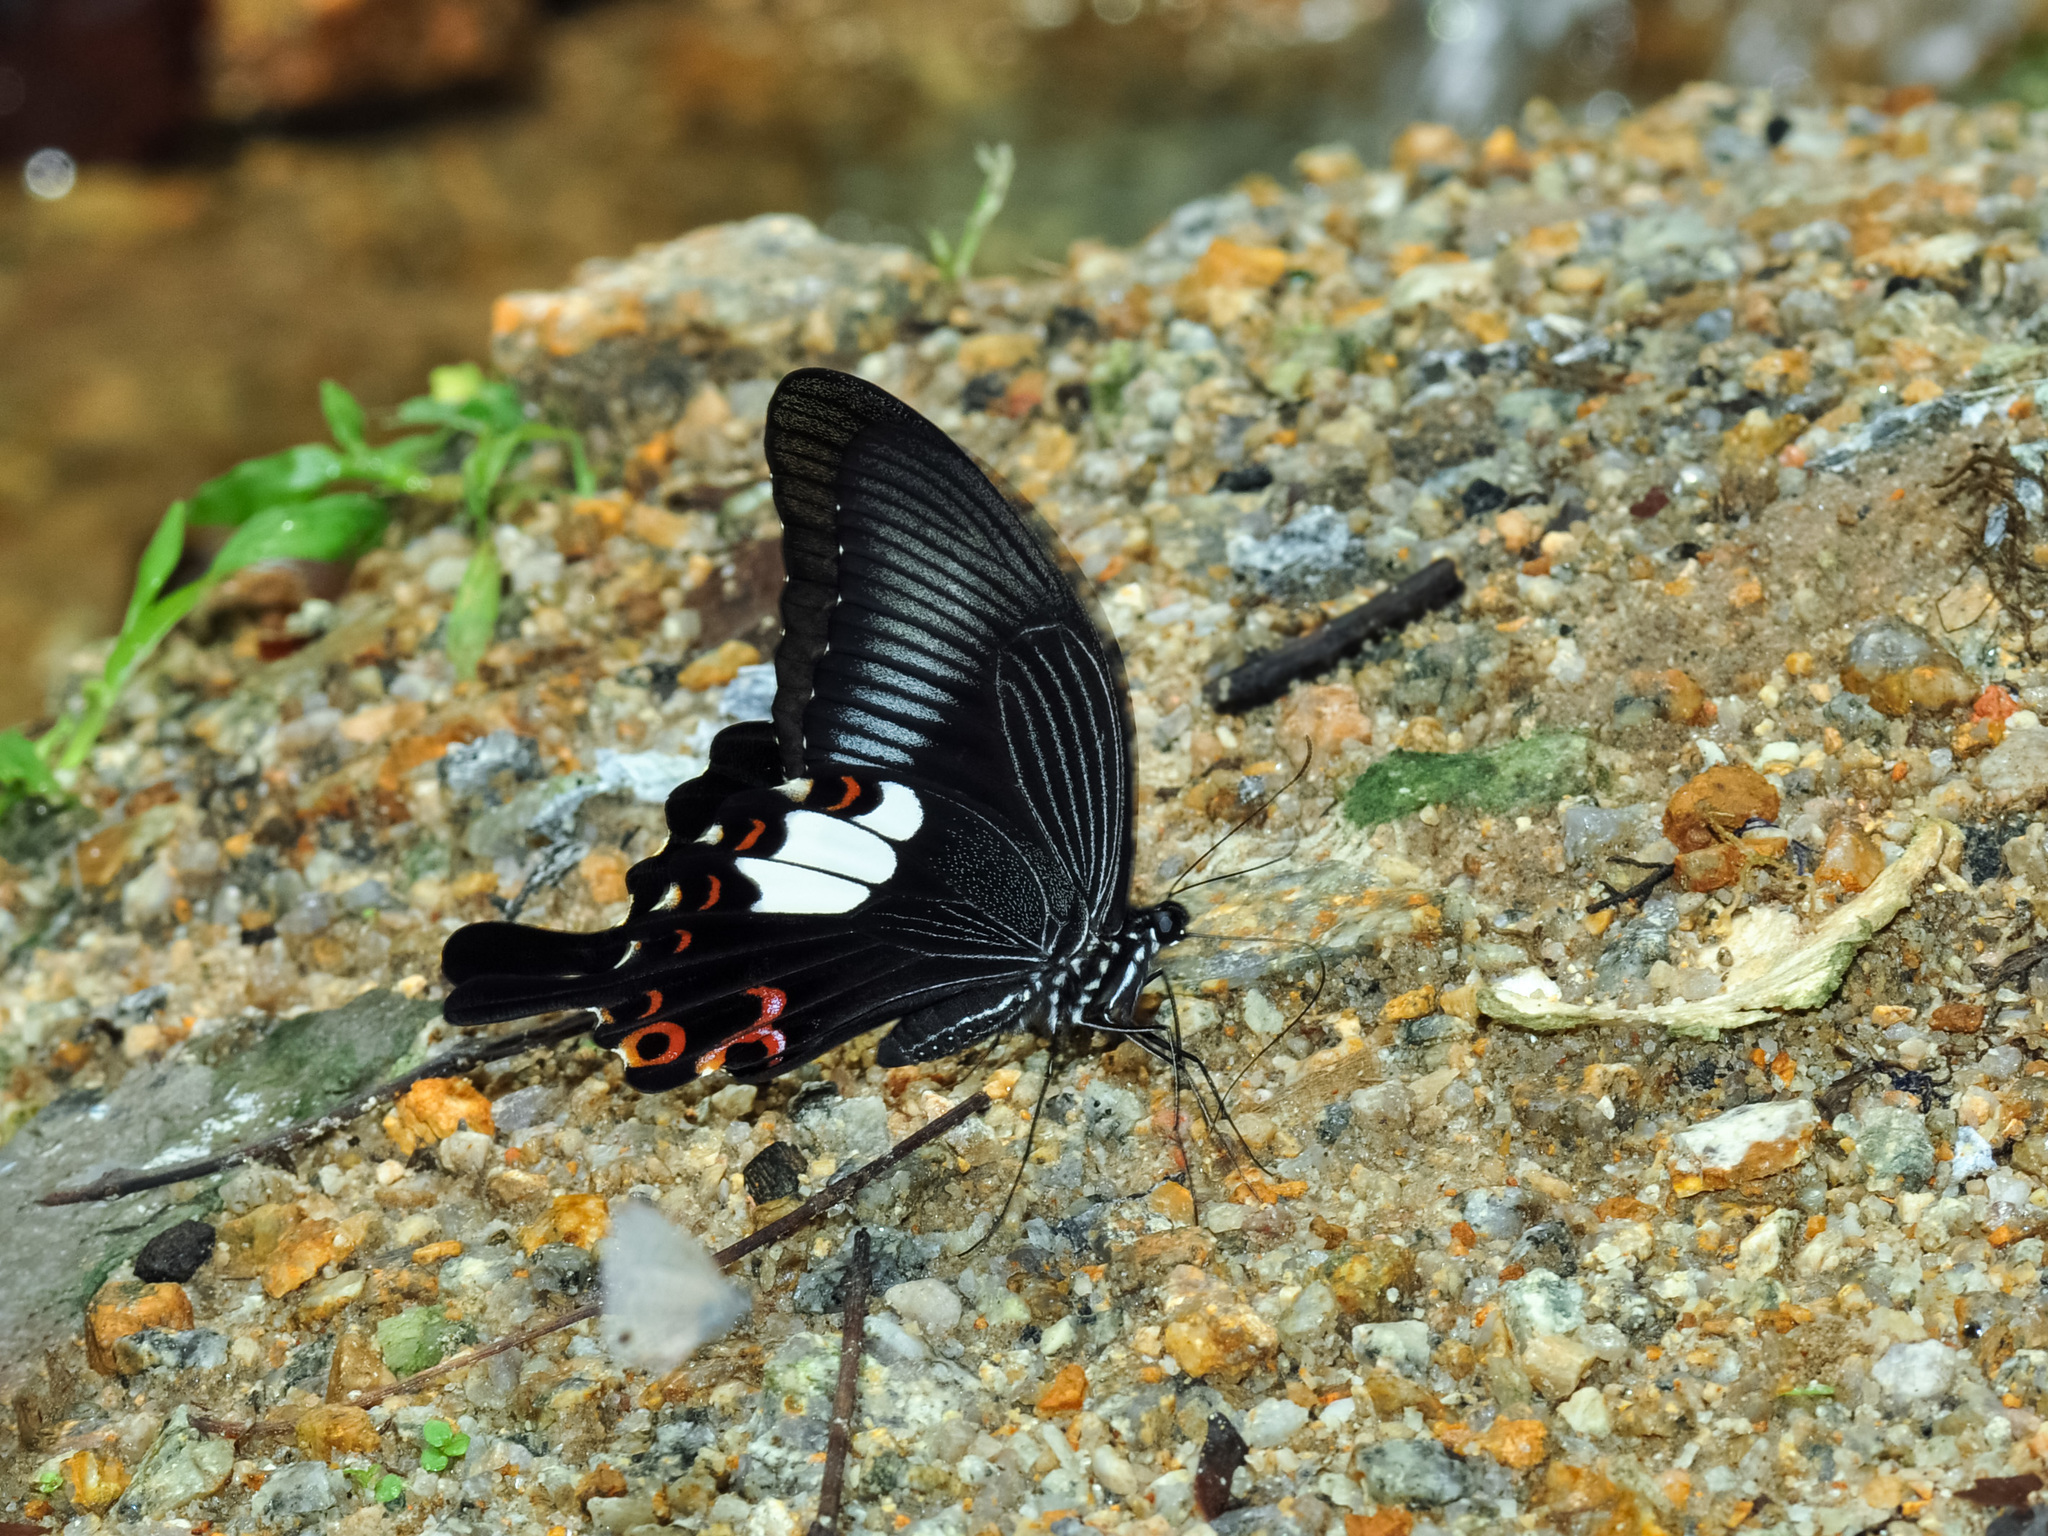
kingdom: Animalia
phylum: Arthropoda
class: Insecta
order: Lepidoptera
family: Papilionidae
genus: Papilio
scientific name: Papilio helenus
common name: Red helen
